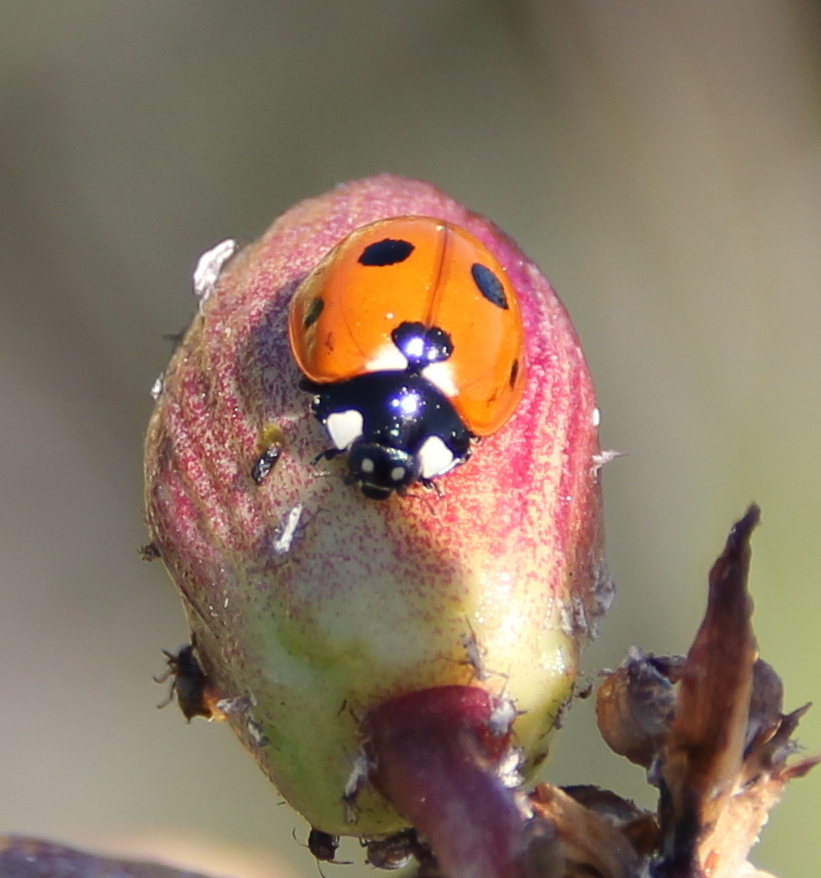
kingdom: Animalia
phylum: Arthropoda
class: Insecta
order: Coleoptera
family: Coccinellidae
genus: Coccinella
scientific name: Coccinella septempunctata
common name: Sevenspotted lady beetle
